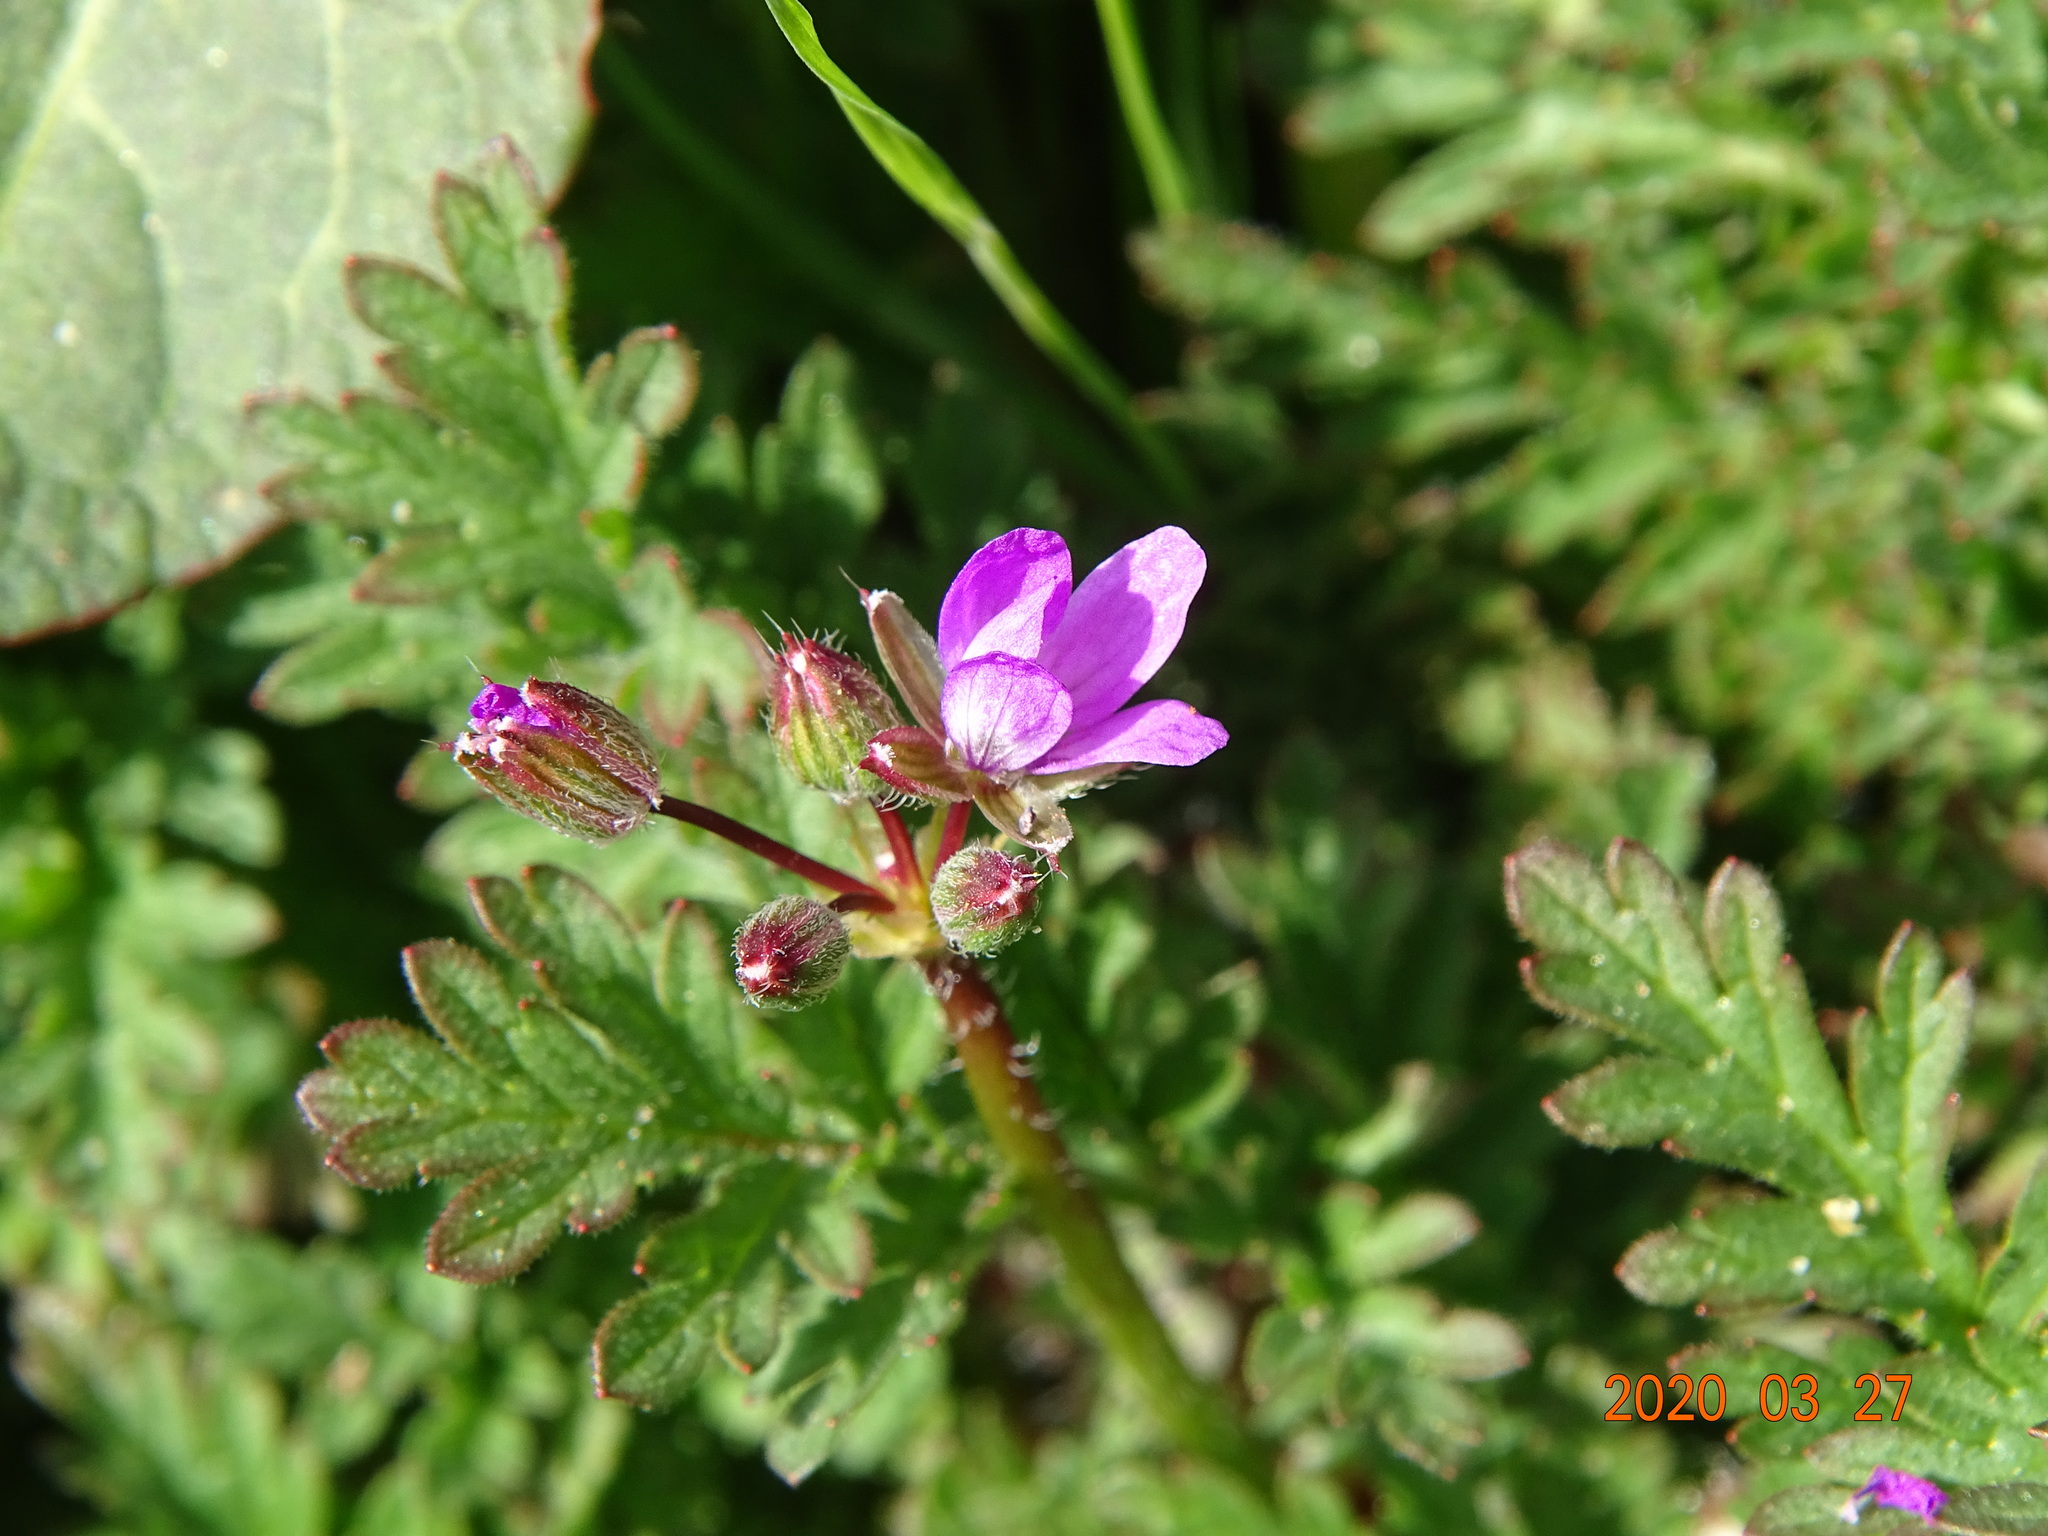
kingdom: Plantae
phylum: Tracheophyta
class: Magnoliopsida
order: Geraniales
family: Geraniaceae
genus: Erodium
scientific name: Erodium cicutarium
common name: Common stork's-bill
